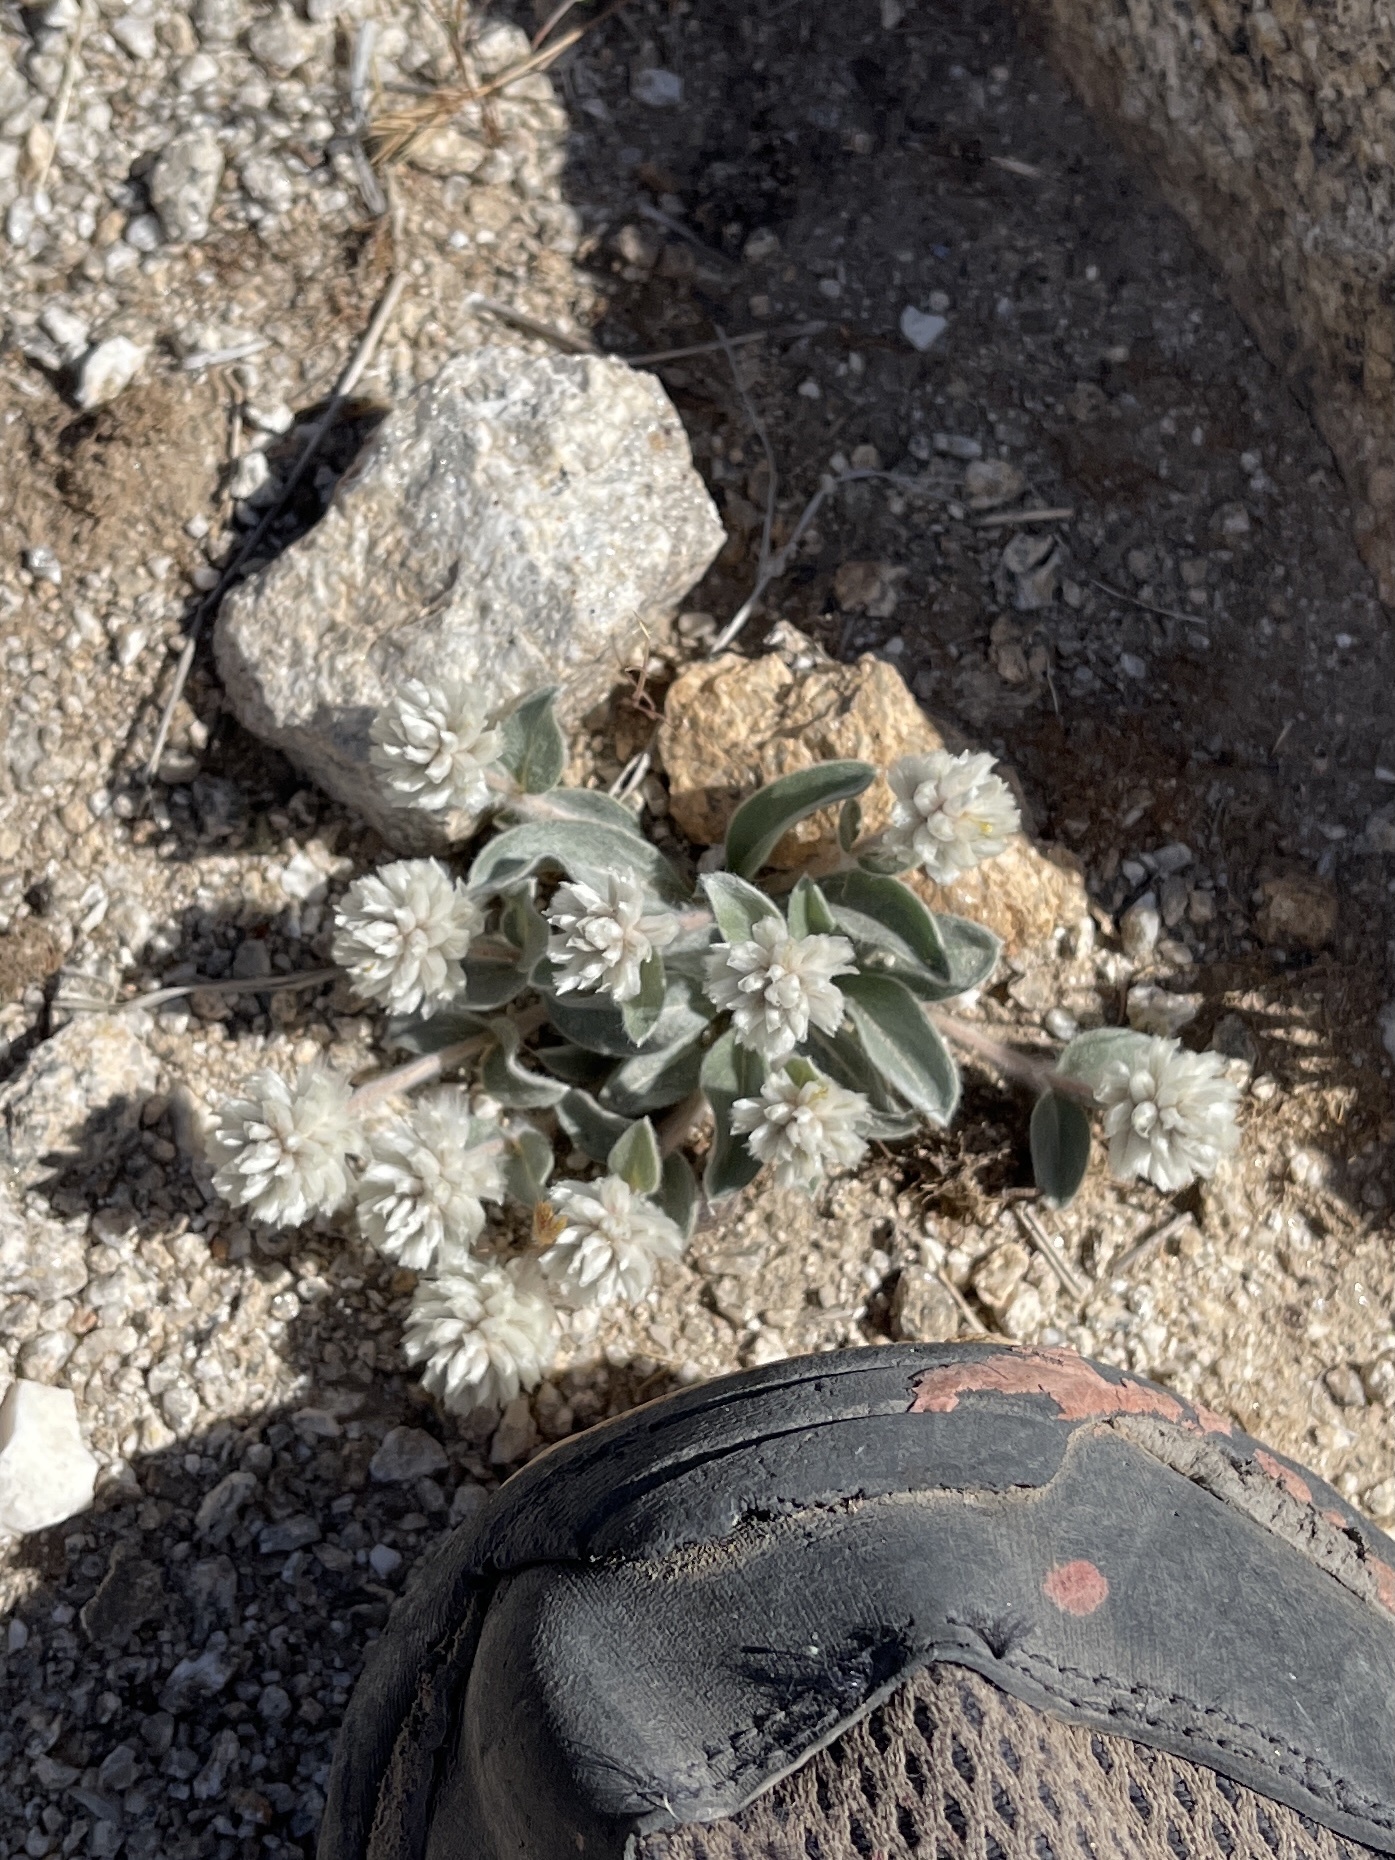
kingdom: Plantae
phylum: Tracheophyta
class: Magnoliopsida
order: Caryophyllales
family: Amaranthaceae
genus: Gomphrena
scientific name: Gomphrena caespitosa
